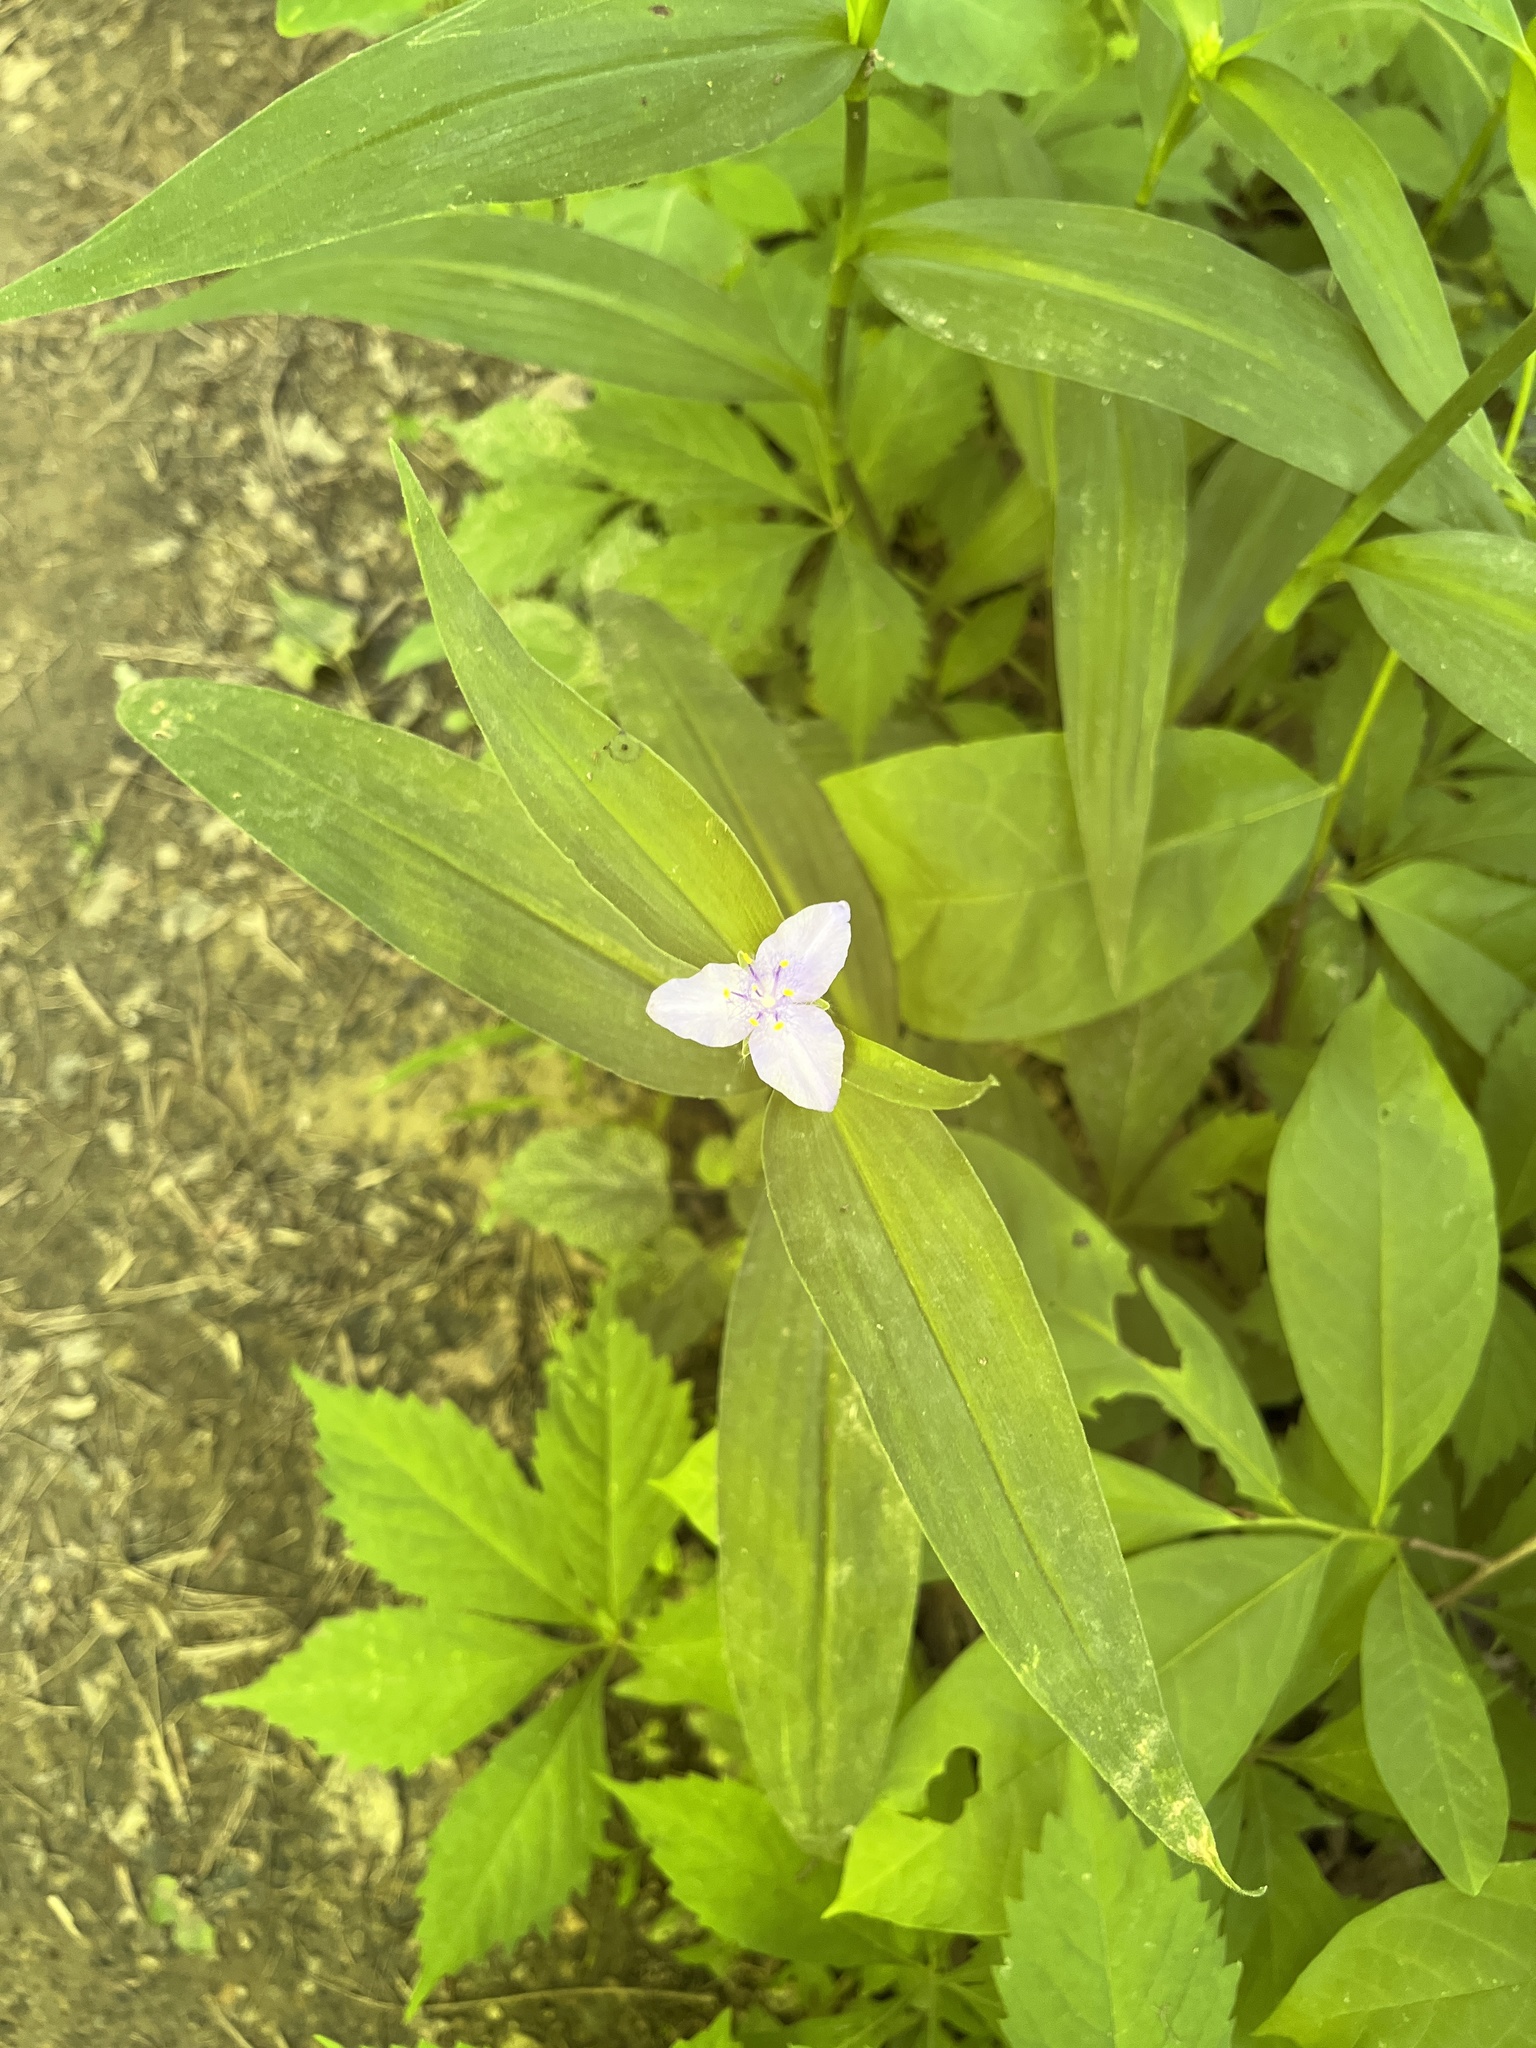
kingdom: Plantae
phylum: Tracheophyta
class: Liliopsida
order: Commelinales
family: Commelinaceae
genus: Tradescantia
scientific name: Tradescantia subaspera
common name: Wide-leaf spiderwort
